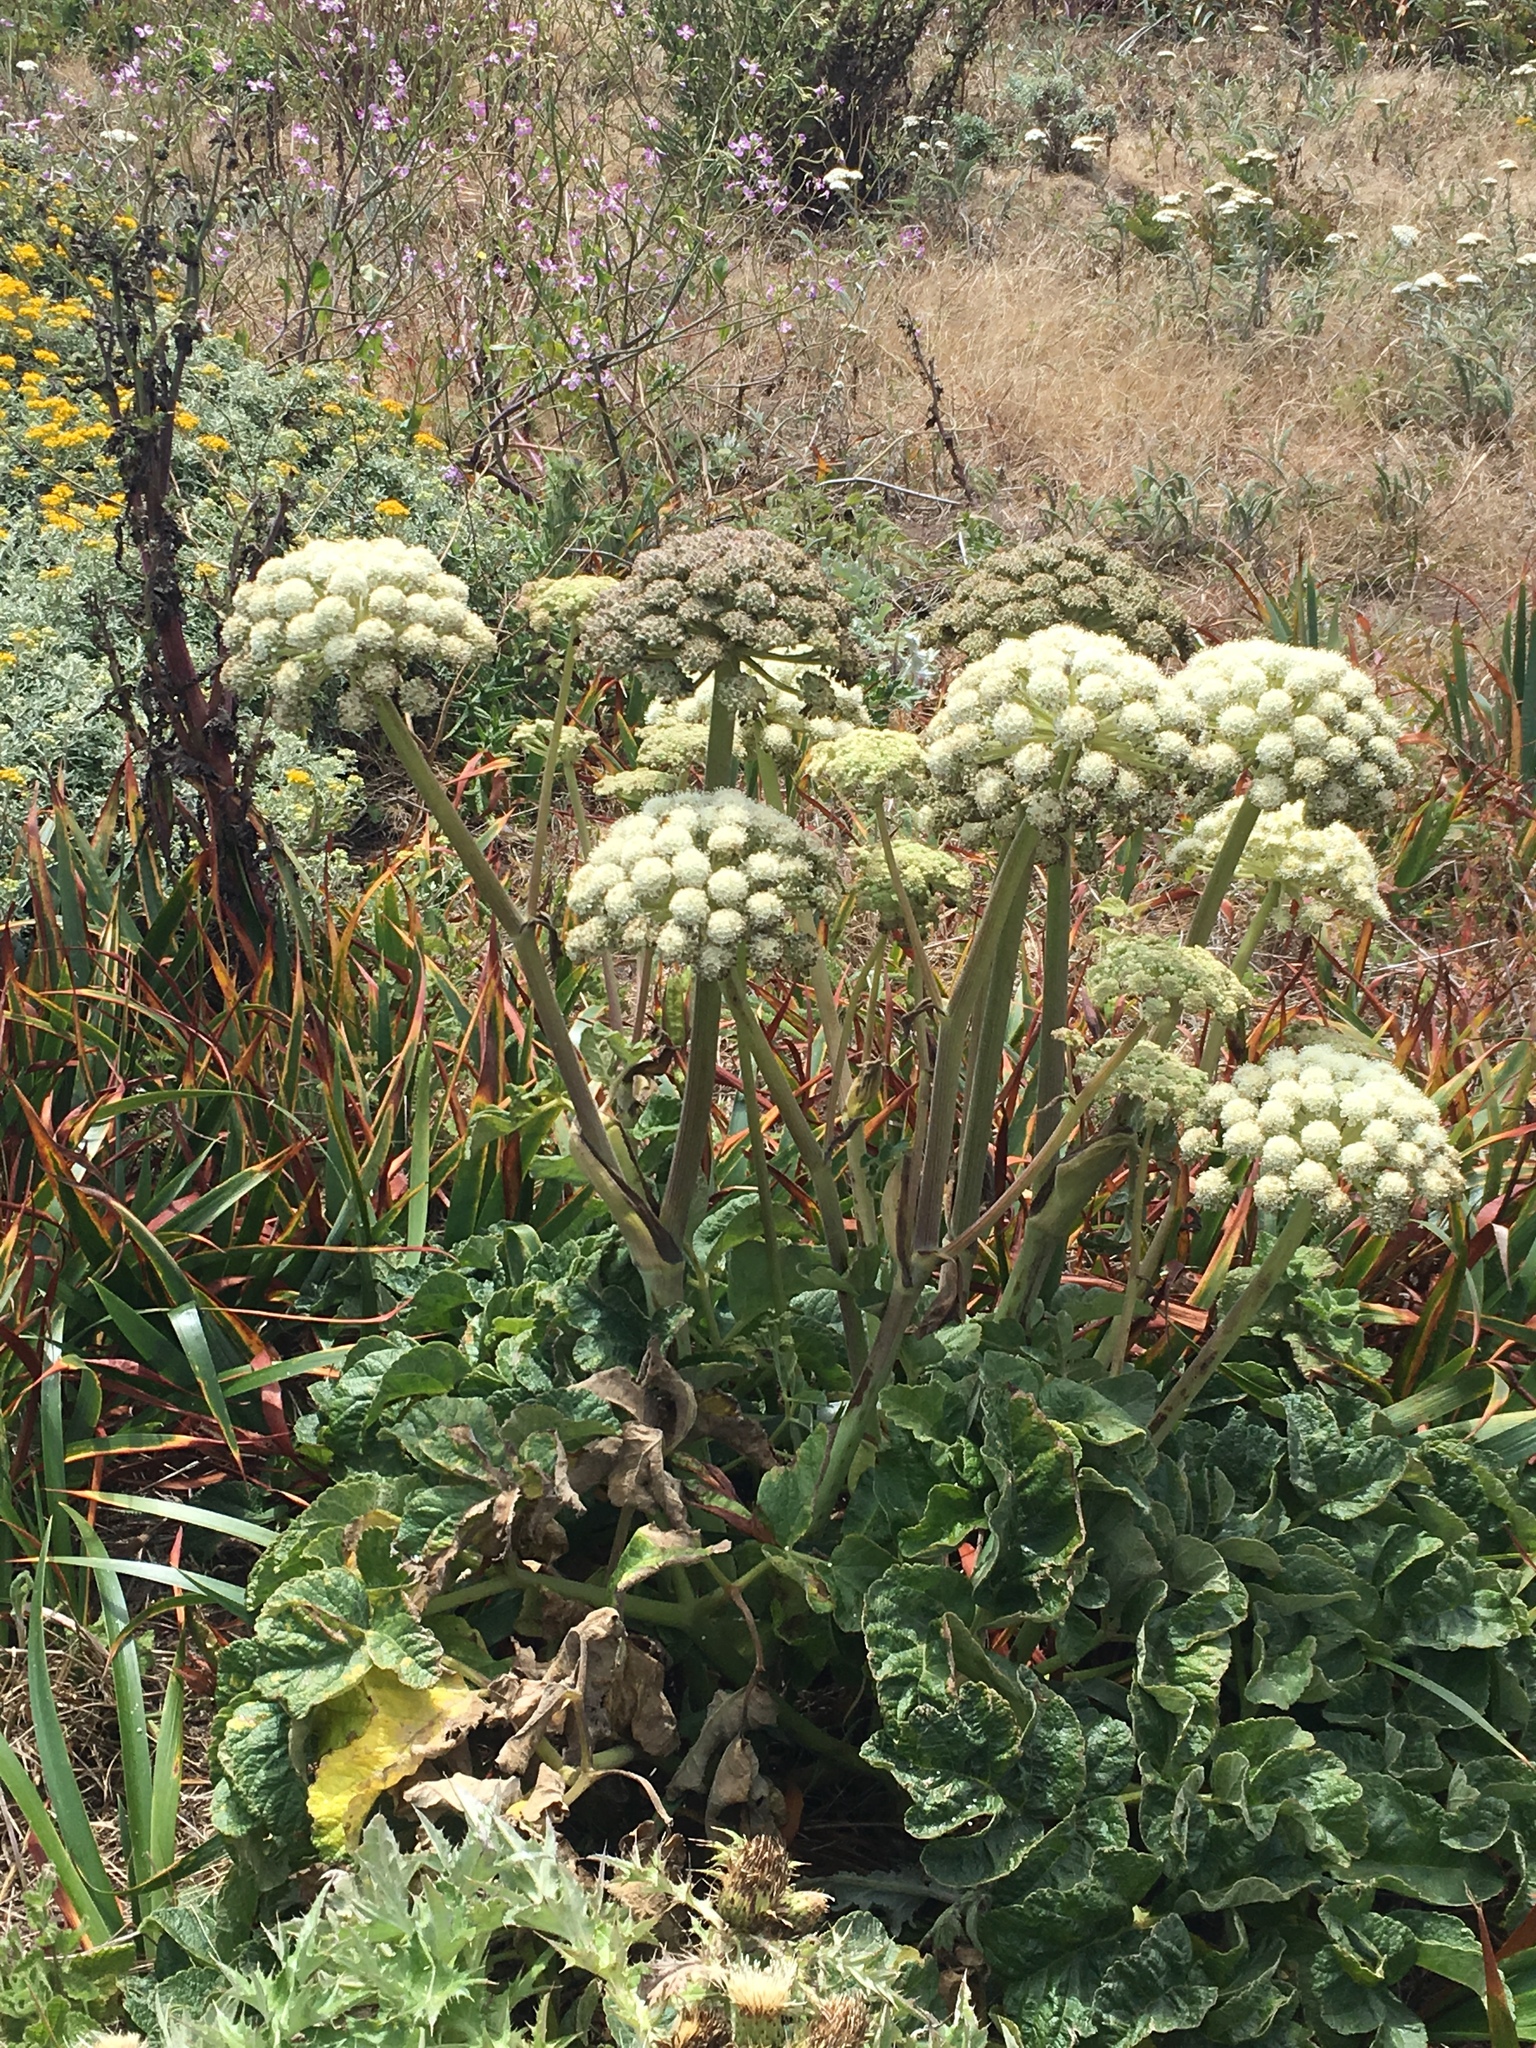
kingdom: Plantae
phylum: Tracheophyta
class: Magnoliopsida
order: Apiales
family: Apiaceae
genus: Angelica
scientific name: Angelica hendersonii
